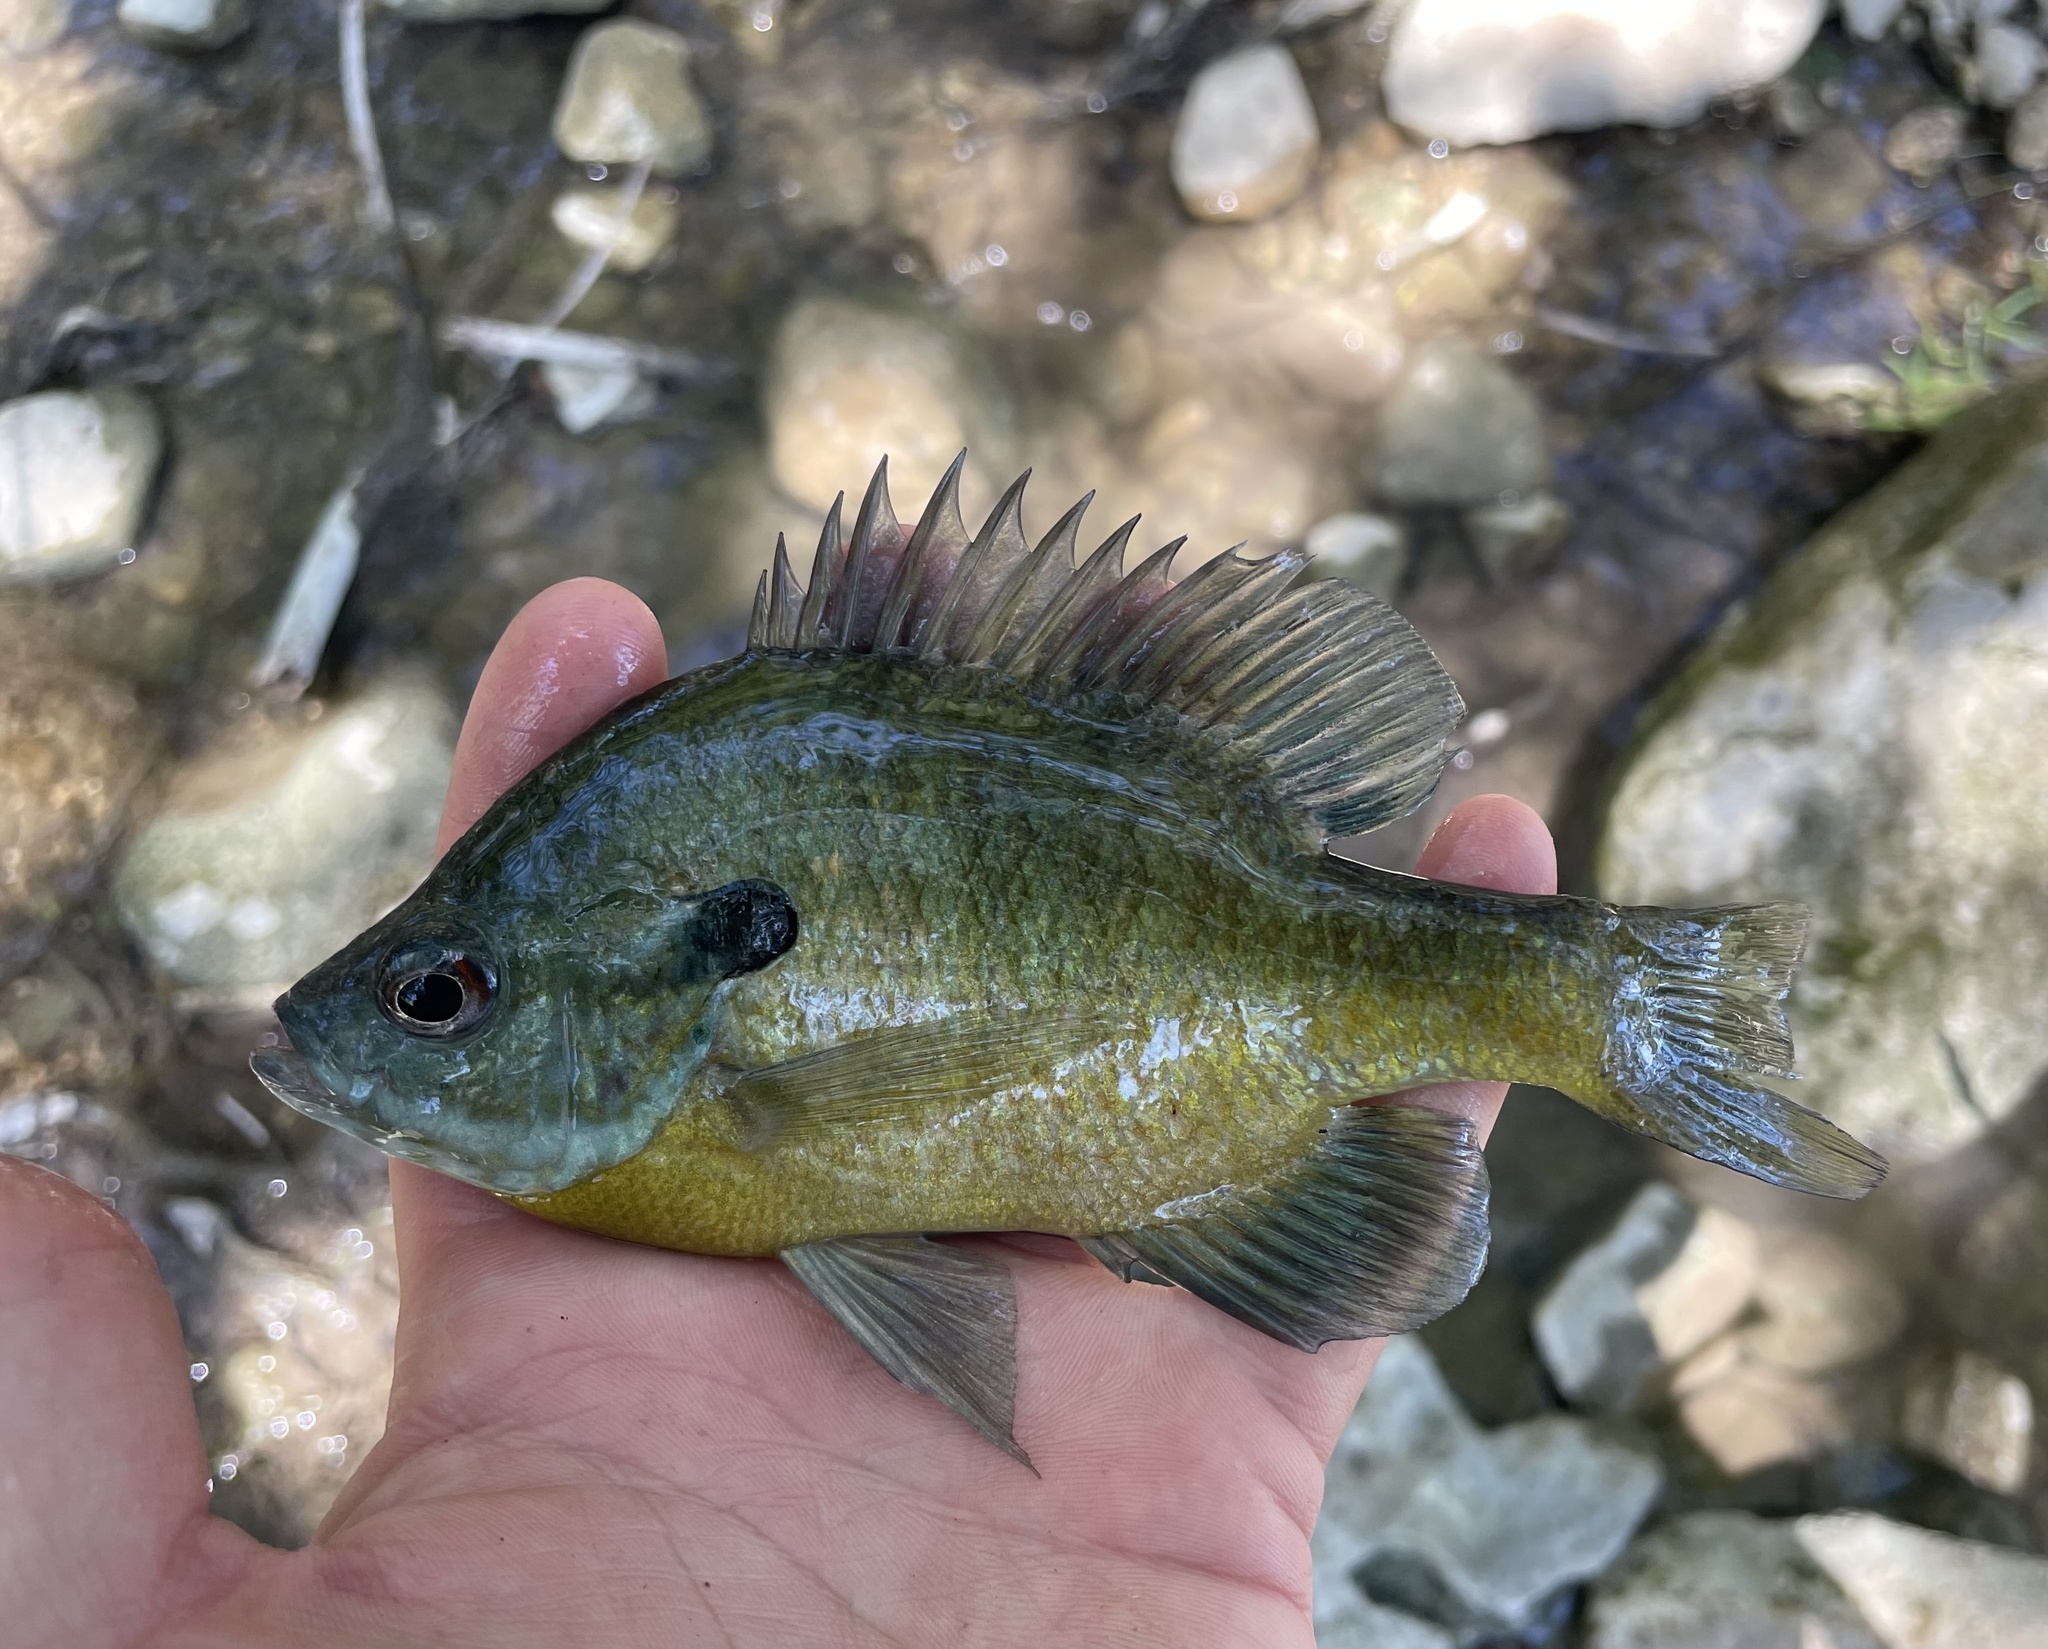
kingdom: Animalia
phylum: Chordata
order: Perciformes
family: Centrarchidae
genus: Lepomis
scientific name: Lepomis macrochirus
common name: Bluegill
